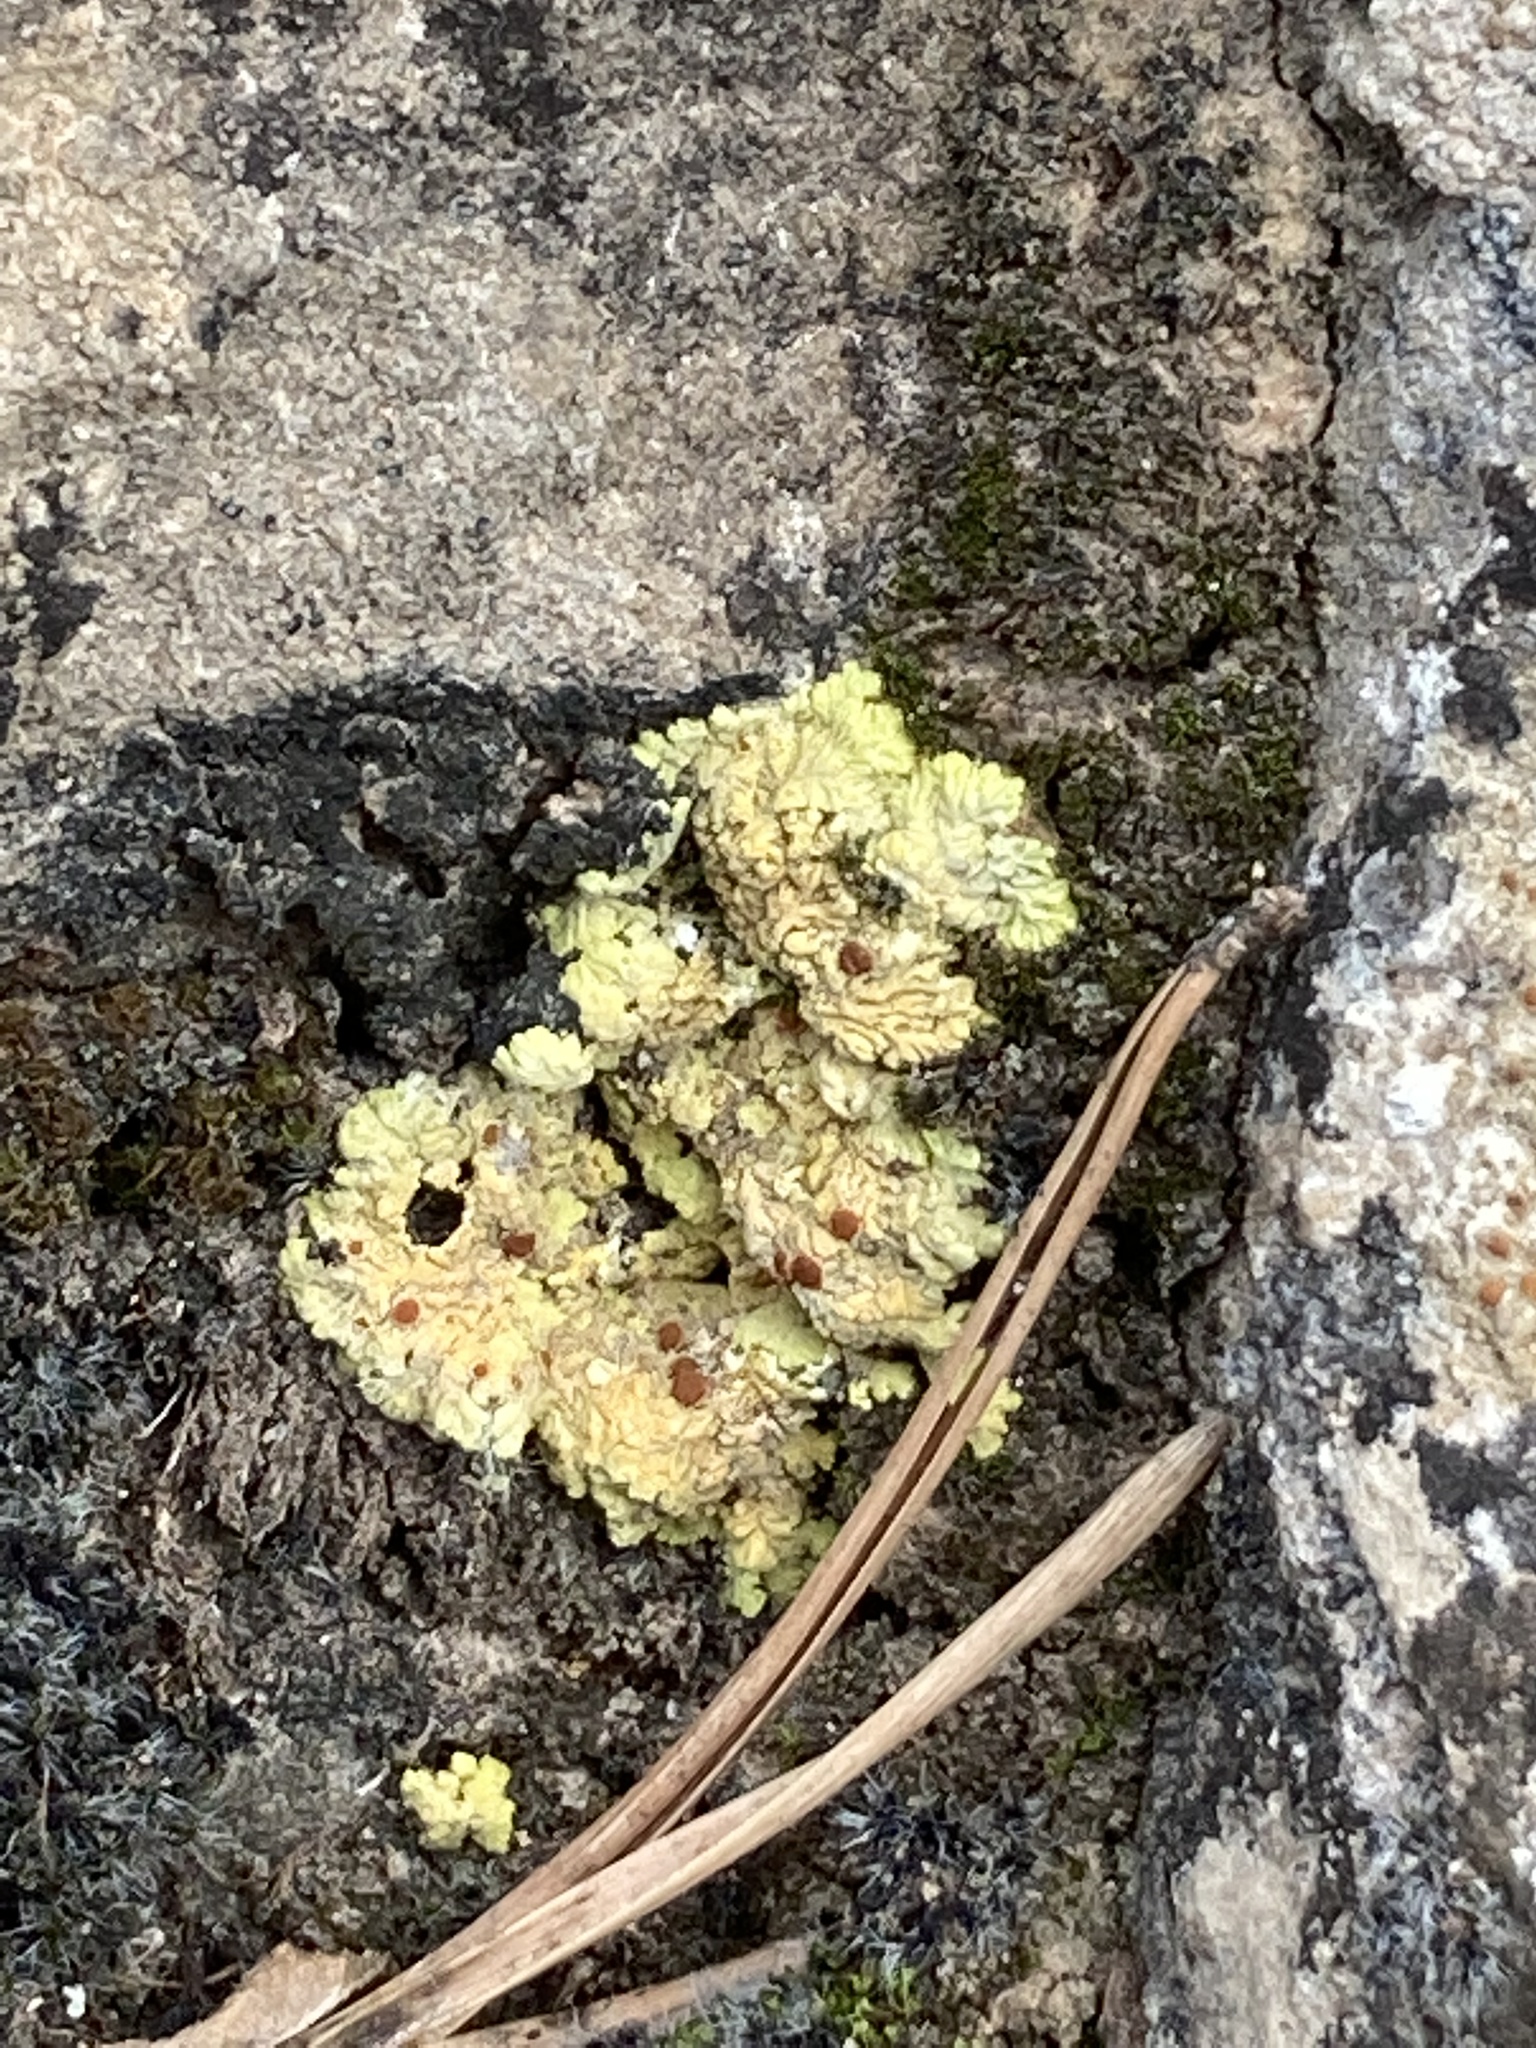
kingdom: Fungi
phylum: Ascomycota
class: Lecanoromycetes
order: Teloschistales
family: Teloschistaceae
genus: Gyalolechia
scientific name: Gyalolechia fulgens
